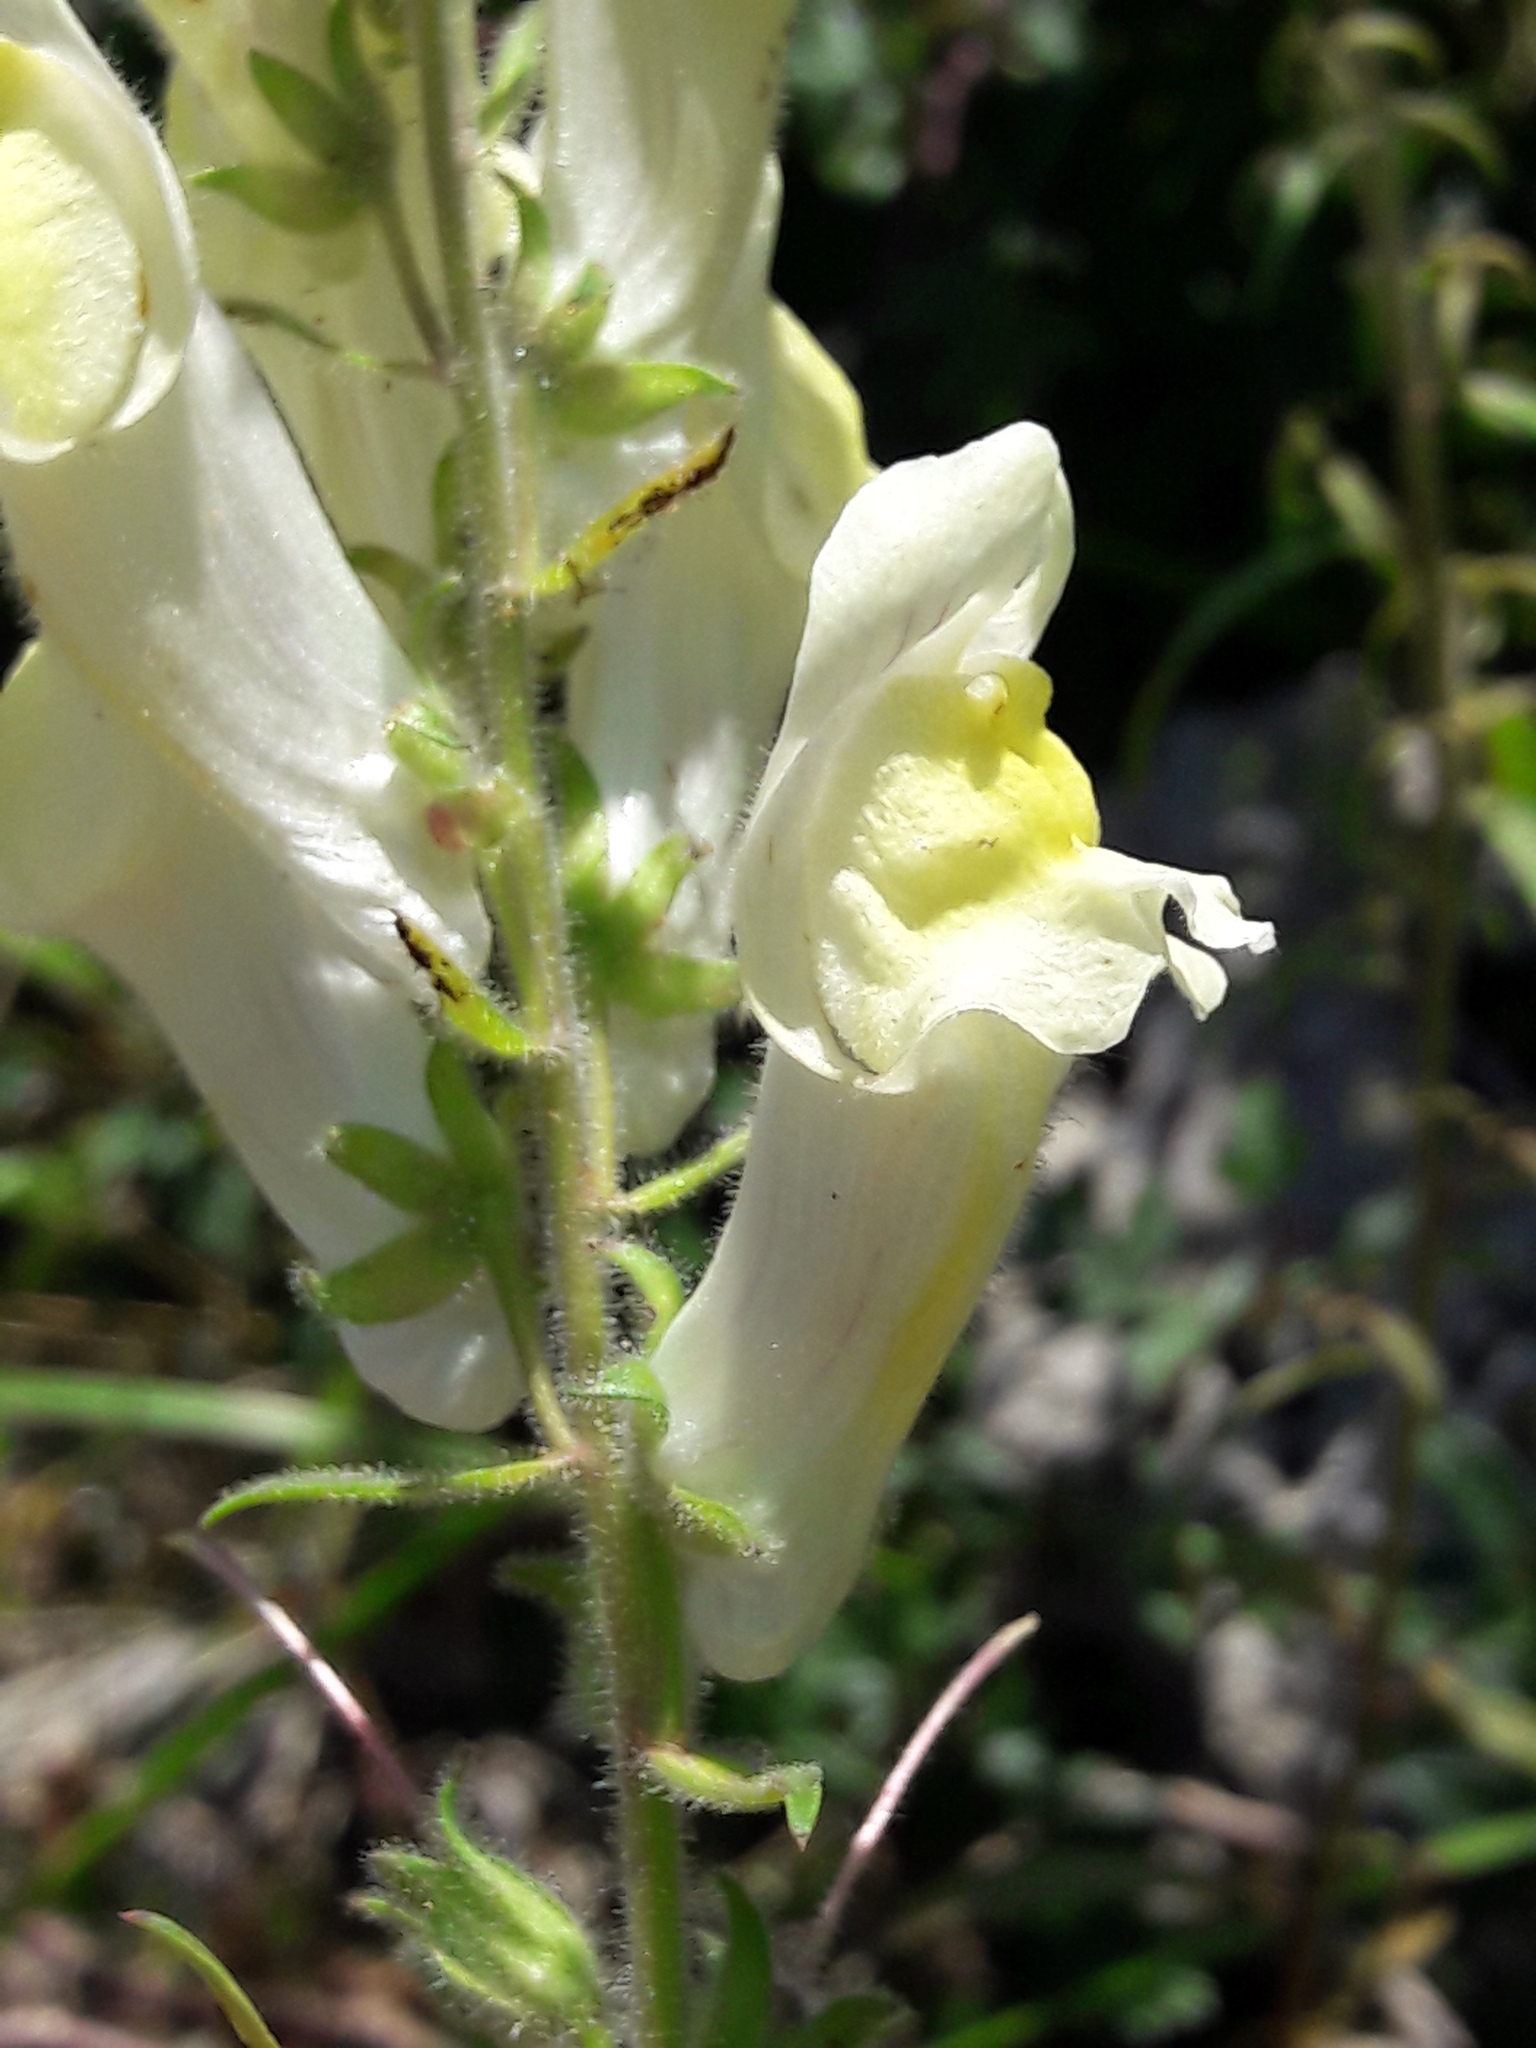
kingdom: Plantae
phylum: Tracheophyta
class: Magnoliopsida
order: Lamiales
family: Plantaginaceae
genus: Antirrhinum
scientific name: Antirrhinum braun-blanquetii
